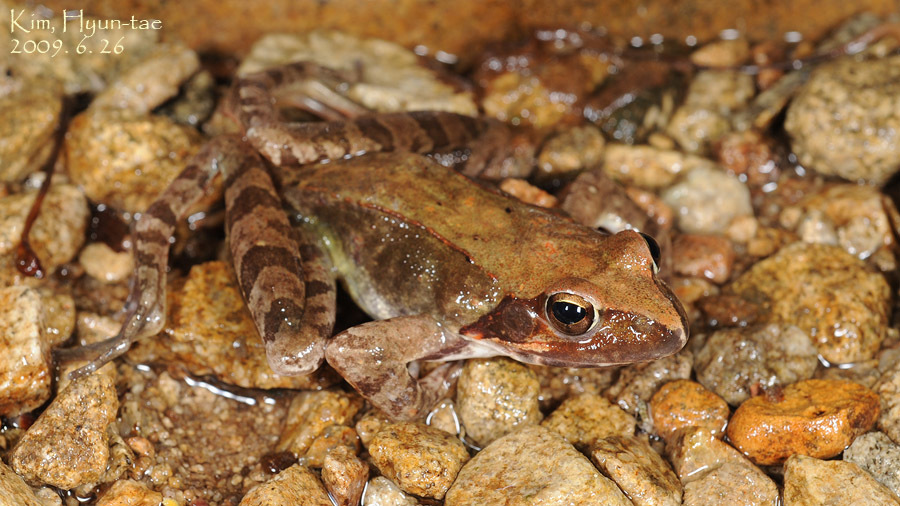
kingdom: Animalia
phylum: Chordata
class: Amphibia
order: Anura
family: Ranidae
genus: Rana
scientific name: Rana uenoi
